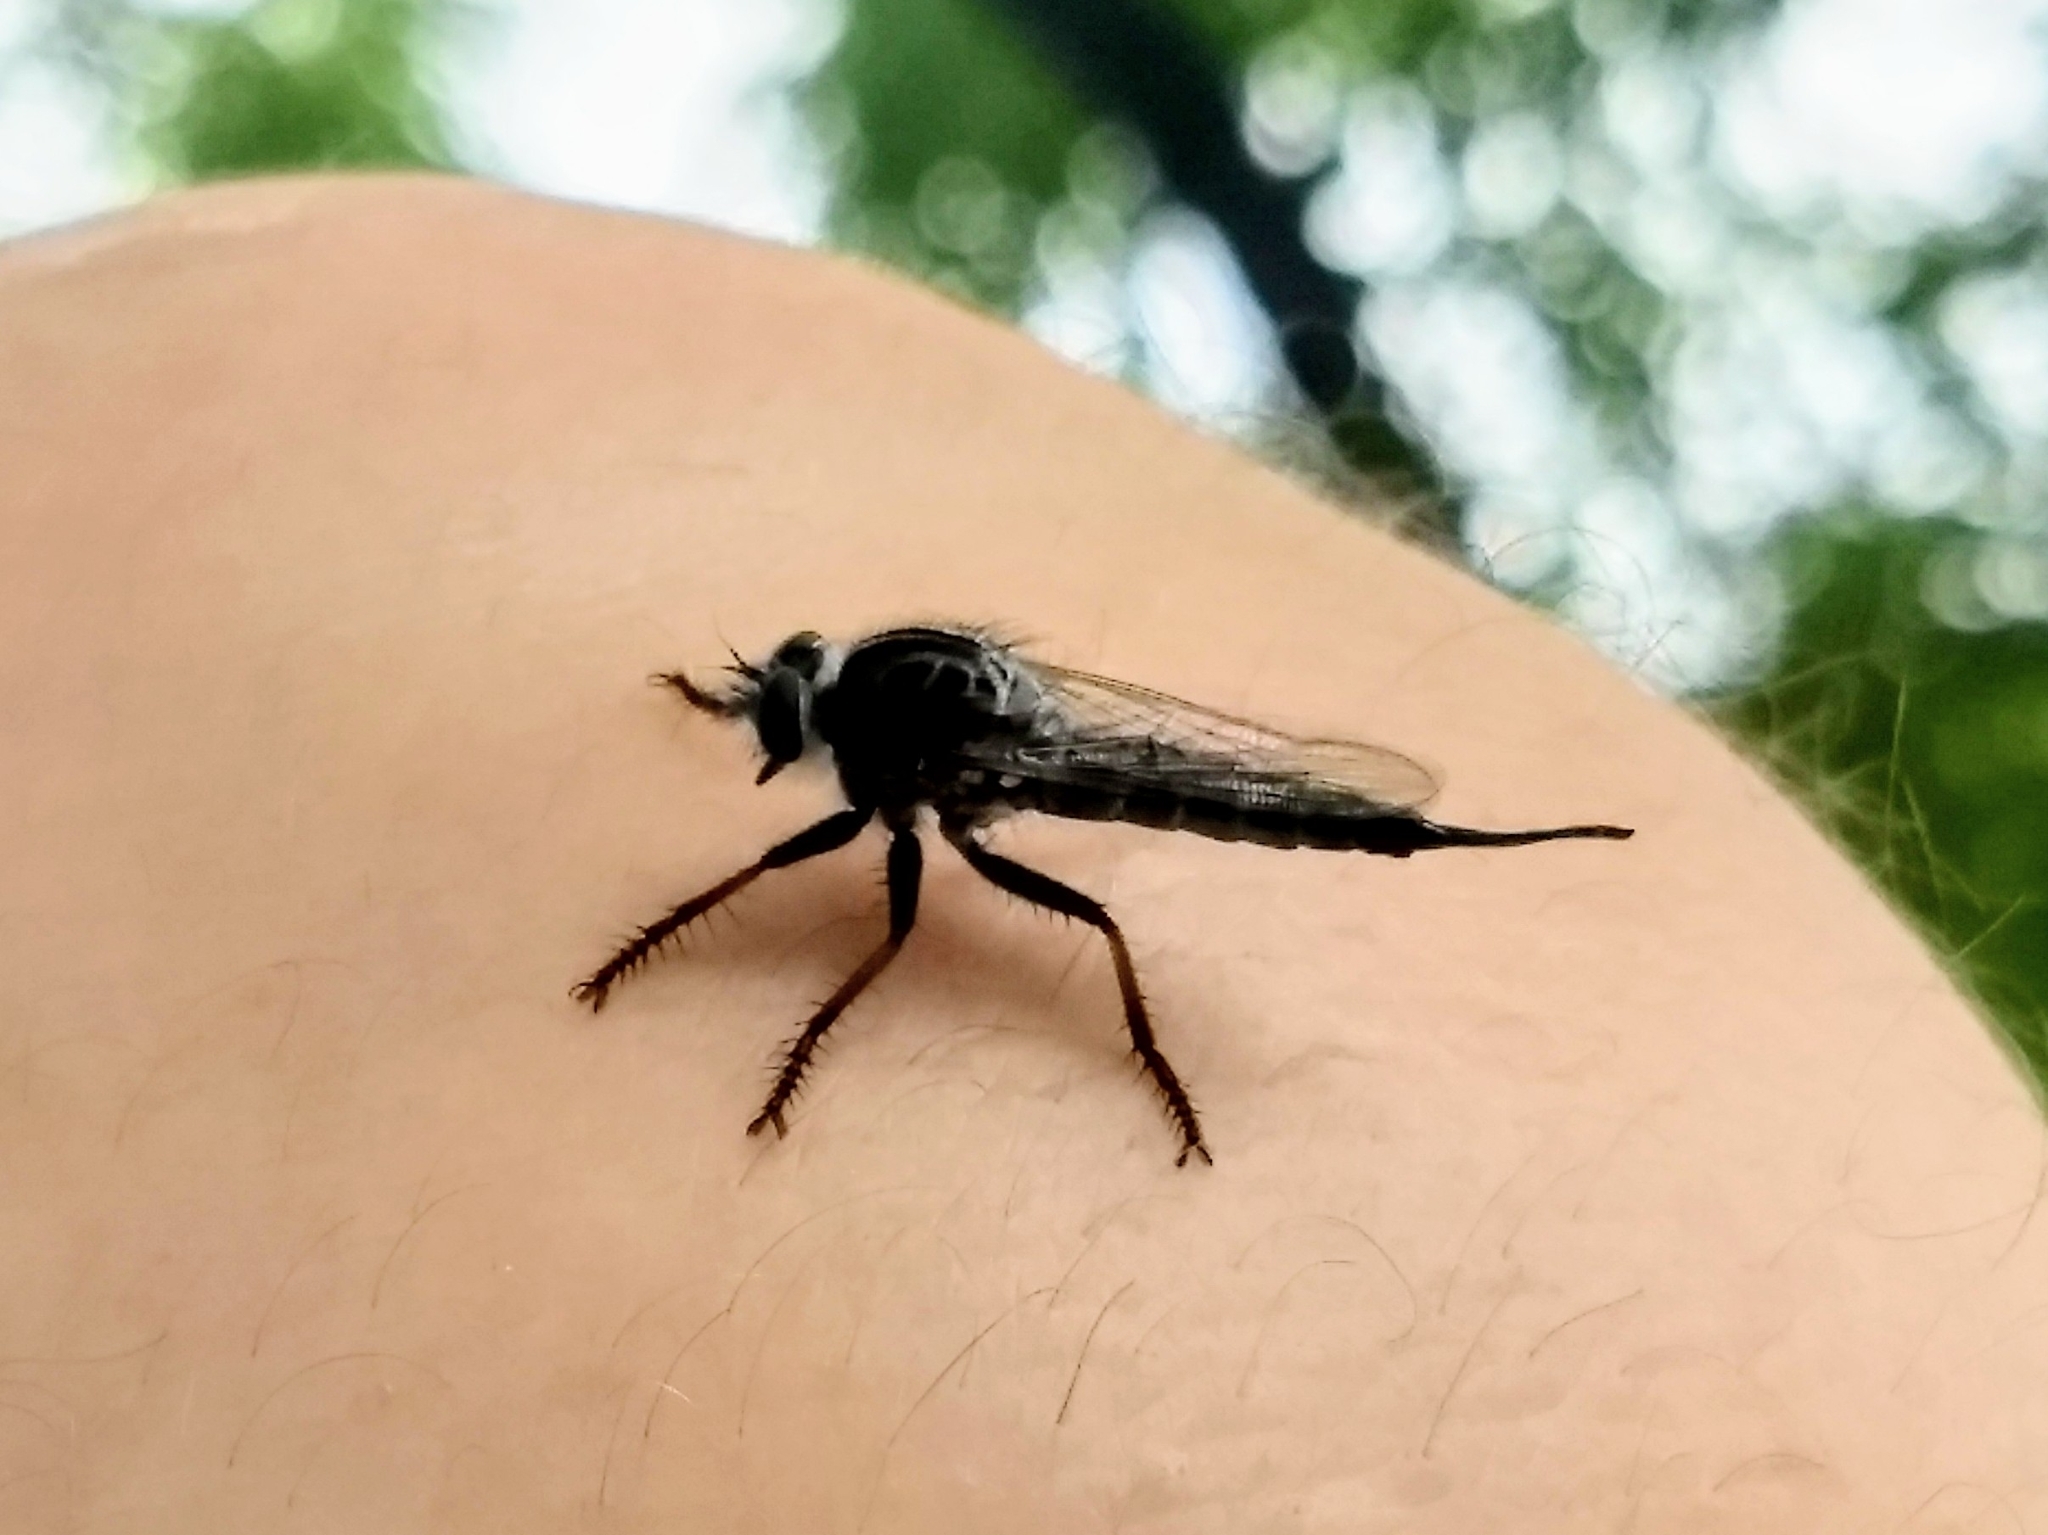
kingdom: Animalia
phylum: Arthropoda
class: Insecta
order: Diptera
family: Asilidae
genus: Efferia
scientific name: Efferia aestuans
